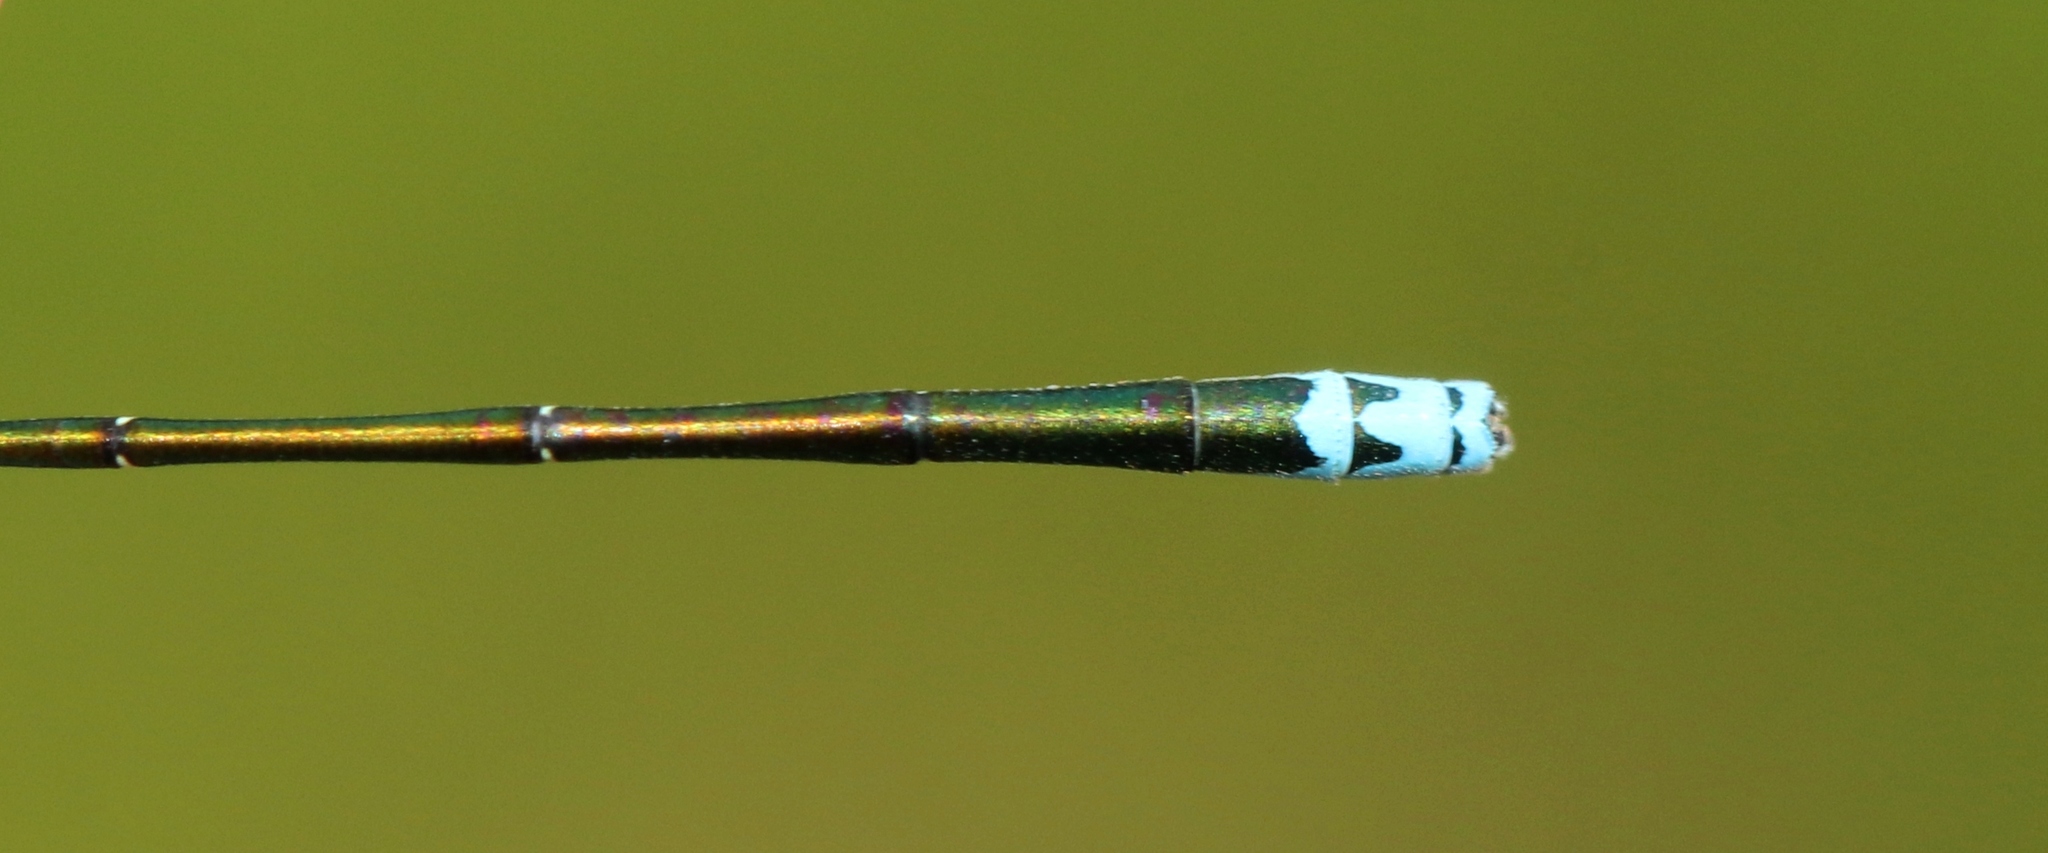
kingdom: Animalia
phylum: Arthropoda
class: Insecta
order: Odonata
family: Coenagrionidae
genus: Nehalennia
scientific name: Nehalennia irene
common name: Sedge sprite
